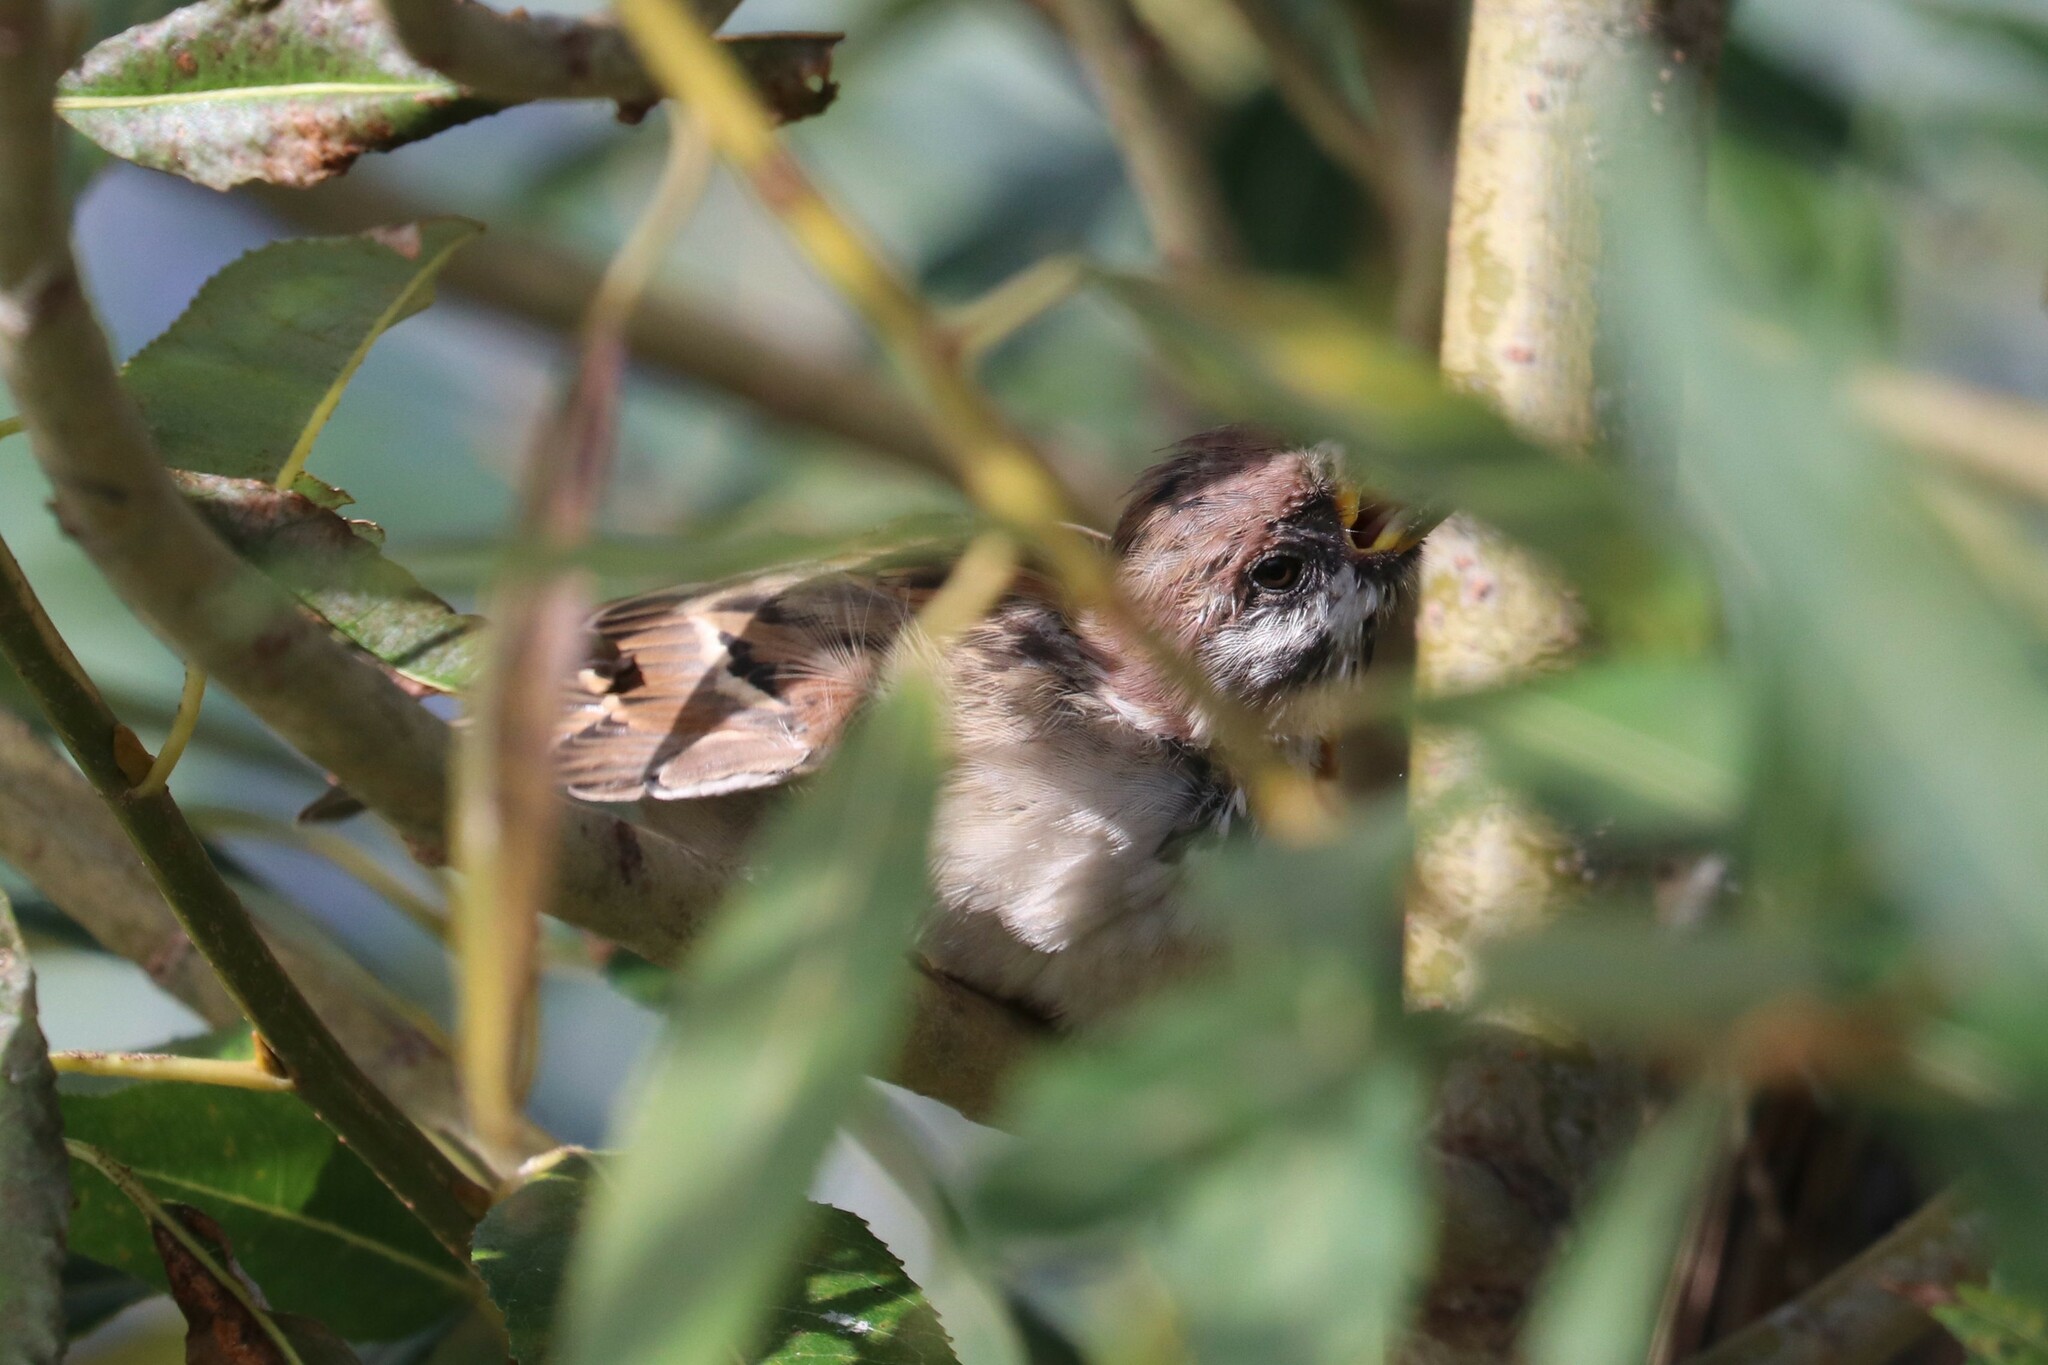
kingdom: Animalia
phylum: Chordata
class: Aves
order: Passeriformes
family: Passeridae
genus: Passer
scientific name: Passer montanus
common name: Eurasian tree sparrow
